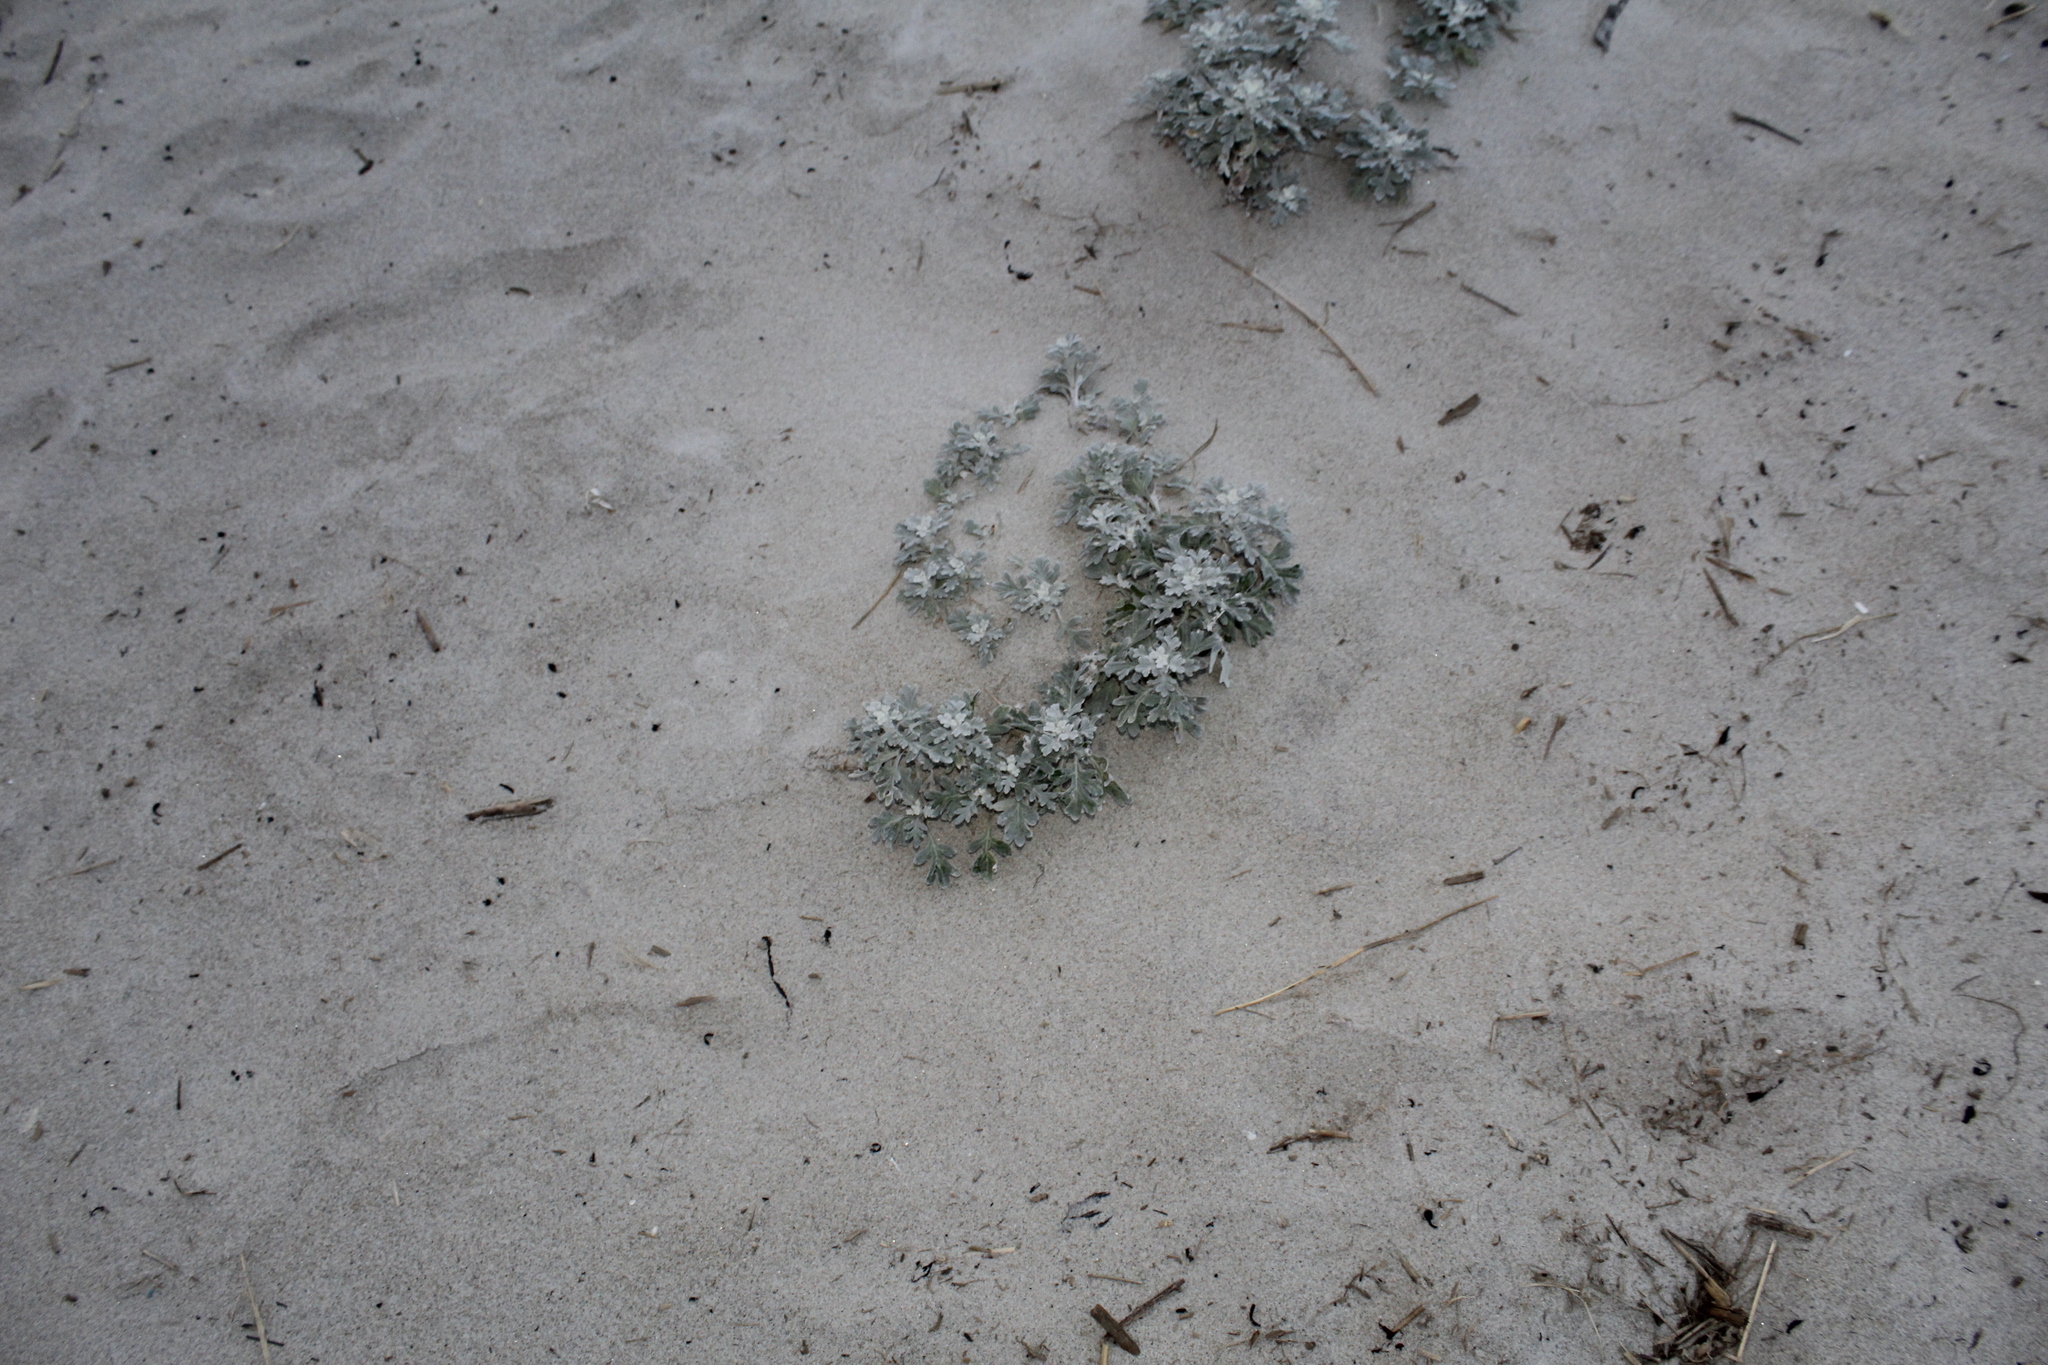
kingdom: Plantae
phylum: Tracheophyta
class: Magnoliopsida
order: Asterales
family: Asteraceae
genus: Artemisia
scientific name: Artemisia stelleriana
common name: Beach wormwood
